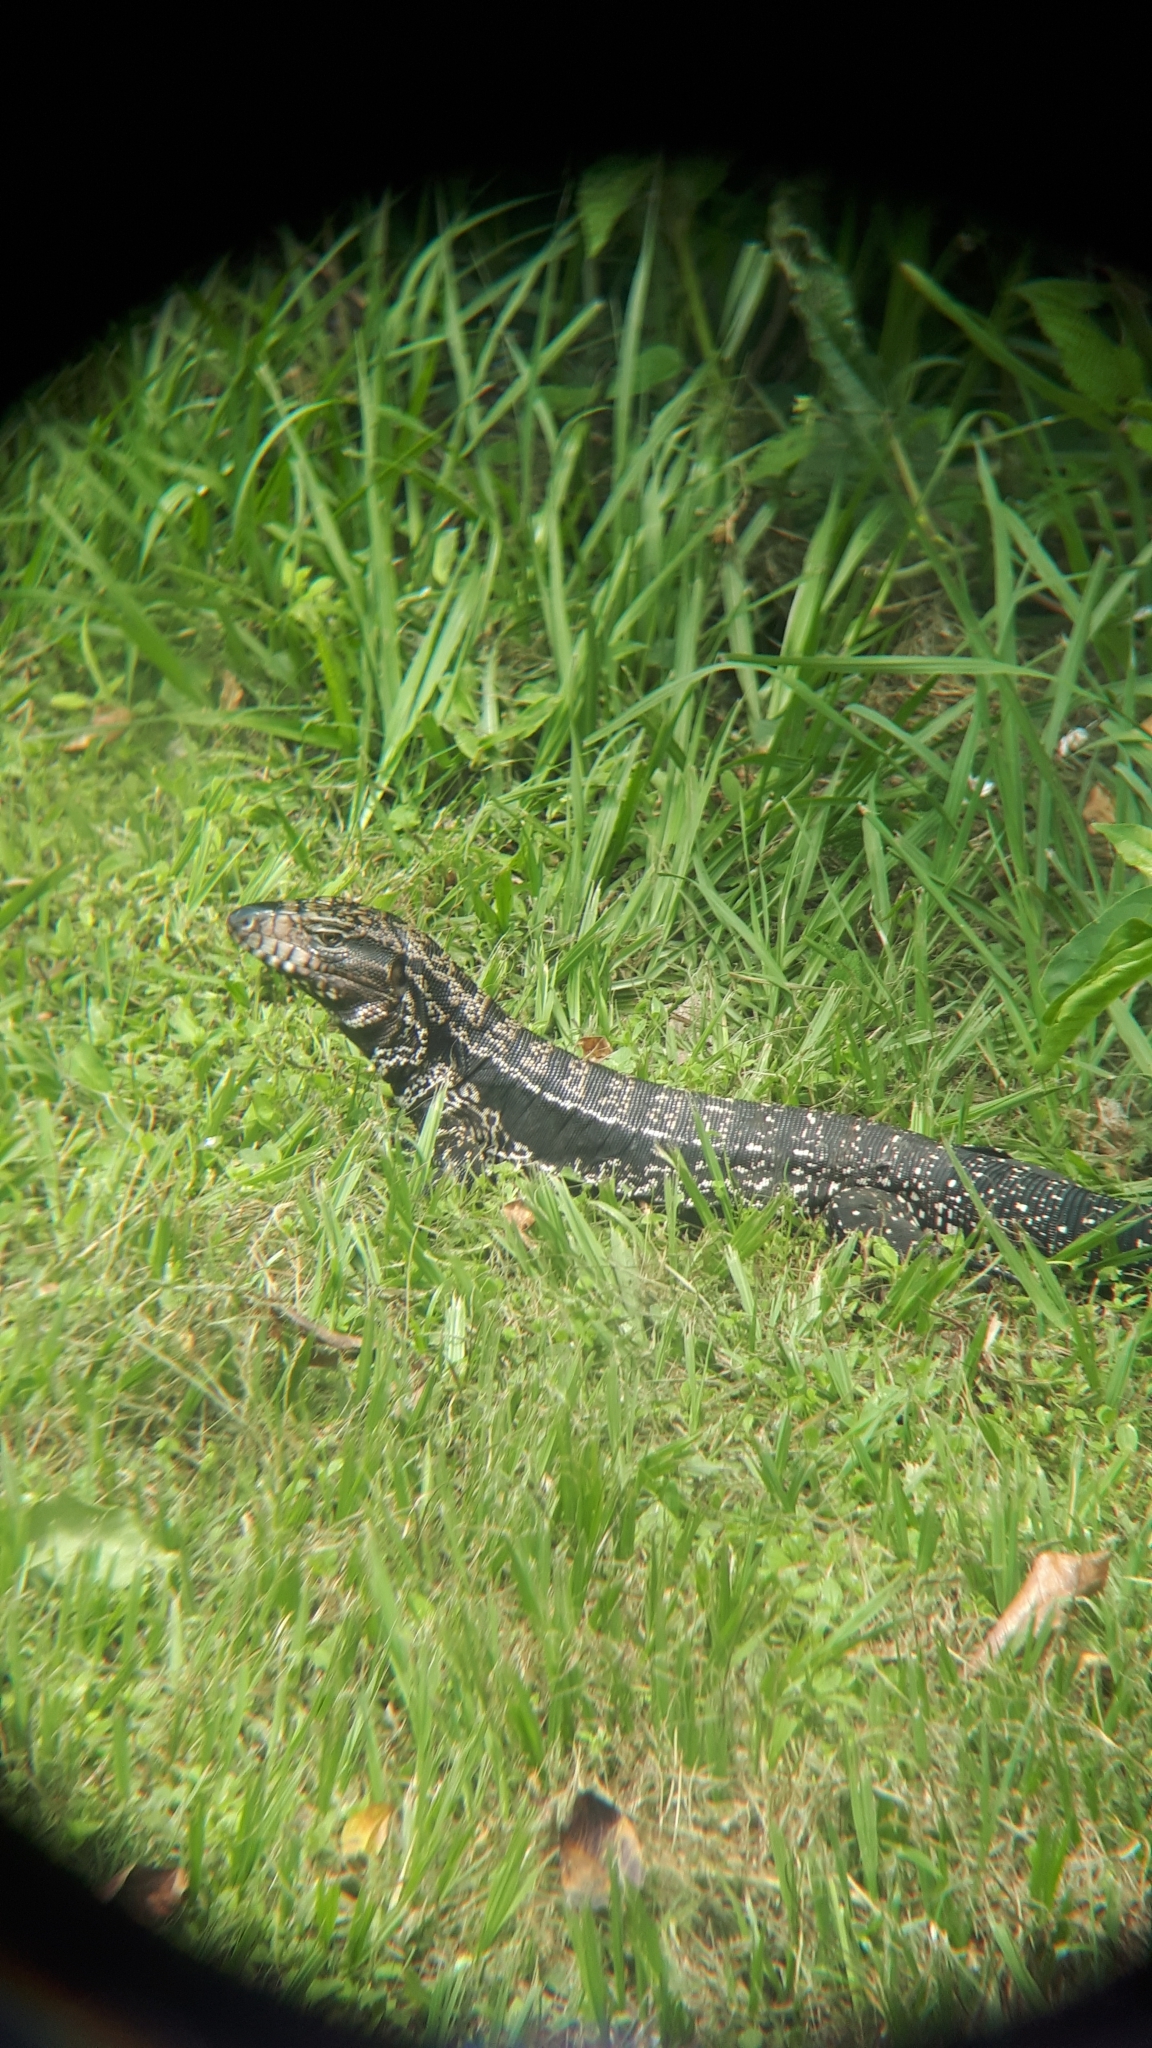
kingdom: Animalia
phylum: Chordata
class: Squamata
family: Teiidae
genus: Salvator
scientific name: Salvator merianae
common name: Argentine black and white tegu
